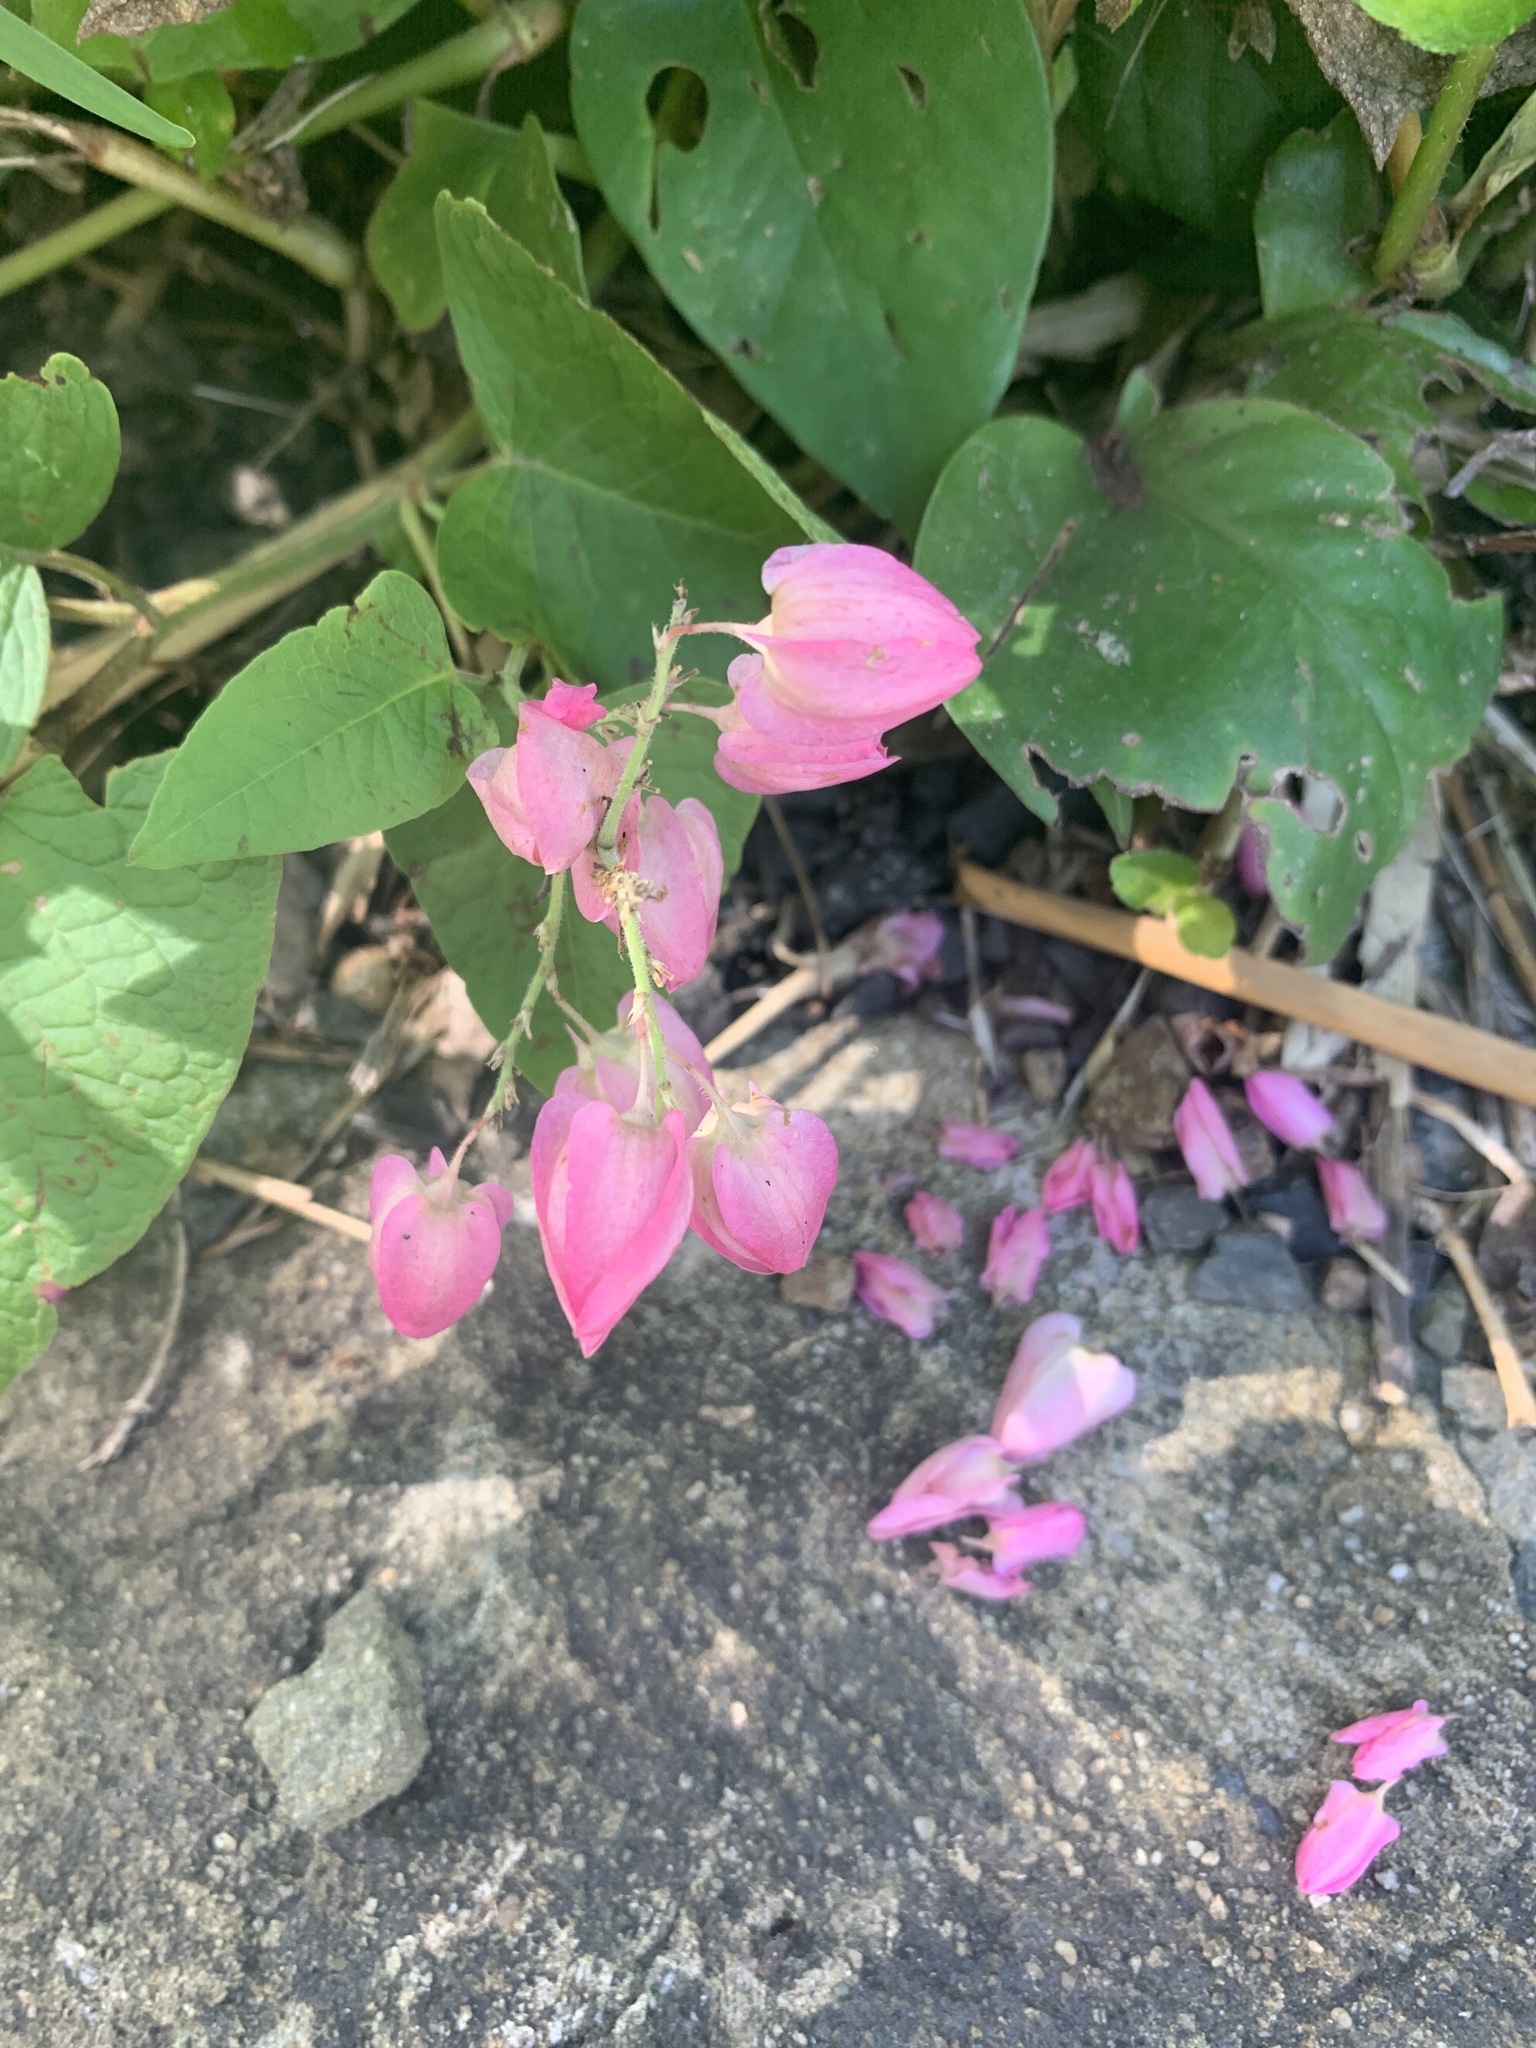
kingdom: Plantae
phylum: Tracheophyta
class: Magnoliopsida
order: Caryophyllales
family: Polygonaceae
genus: Antigonon
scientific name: Antigonon leptopus
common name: Coral vine
